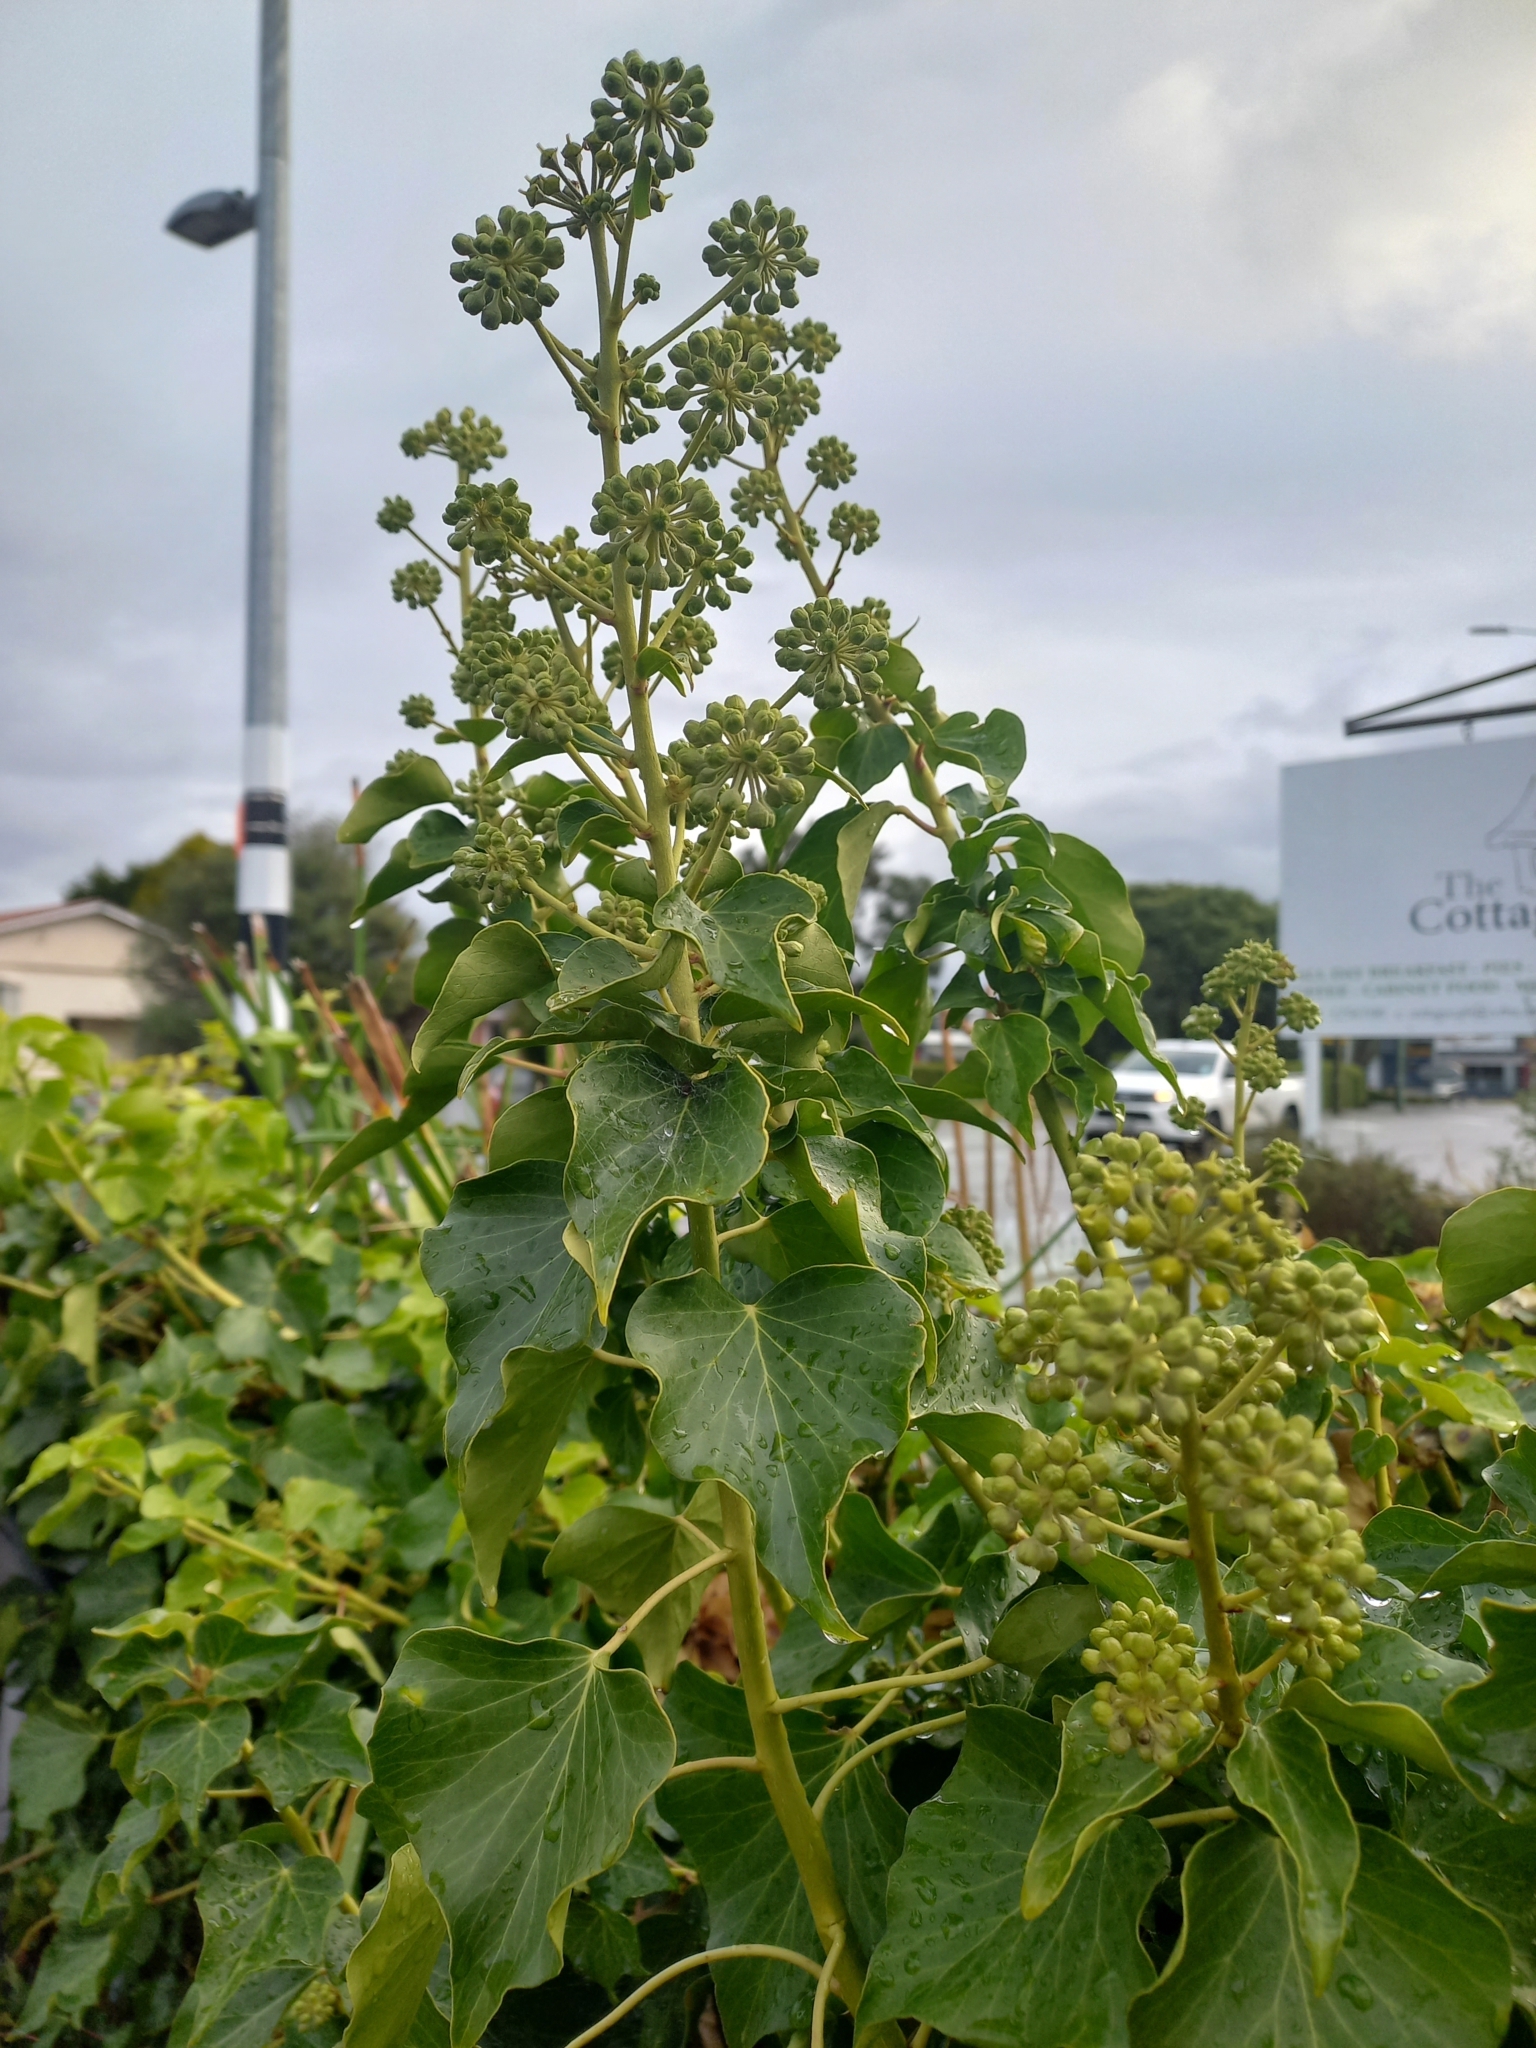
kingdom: Plantae
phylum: Tracheophyta
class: Magnoliopsida
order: Apiales
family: Araliaceae
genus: Hedera
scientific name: Hedera helix
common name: Ivy
